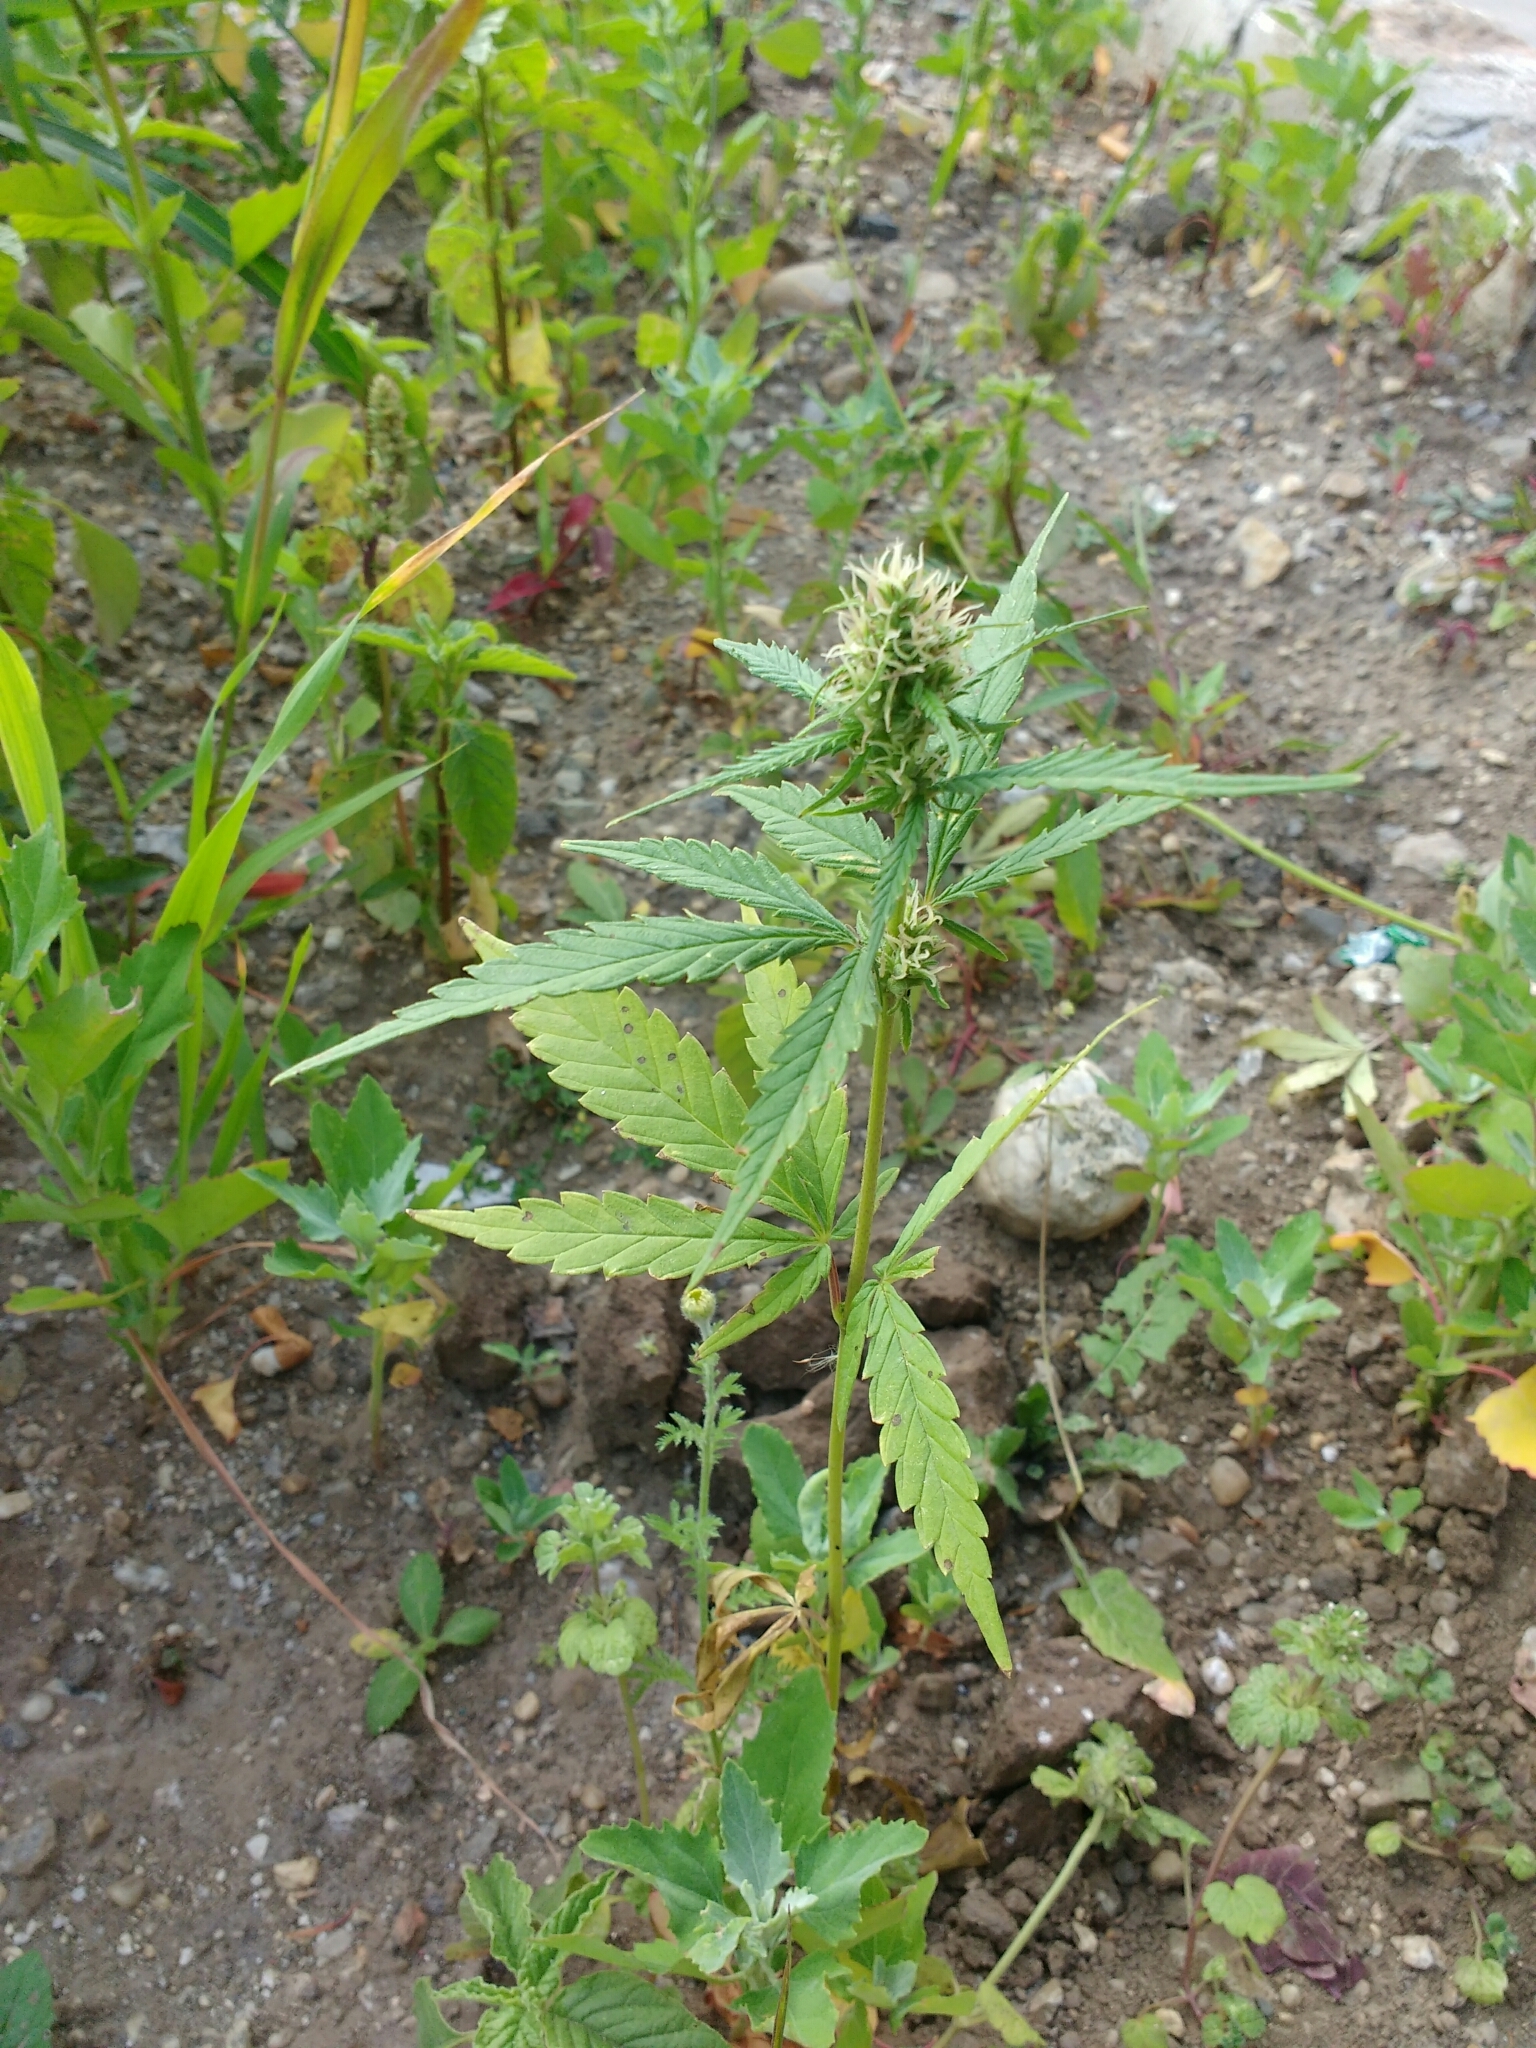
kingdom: Plantae
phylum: Tracheophyta
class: Magnoliopsida
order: Rosales
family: Cannabaceae
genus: Cannabis
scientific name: Cannabis sativa
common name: Hemp
